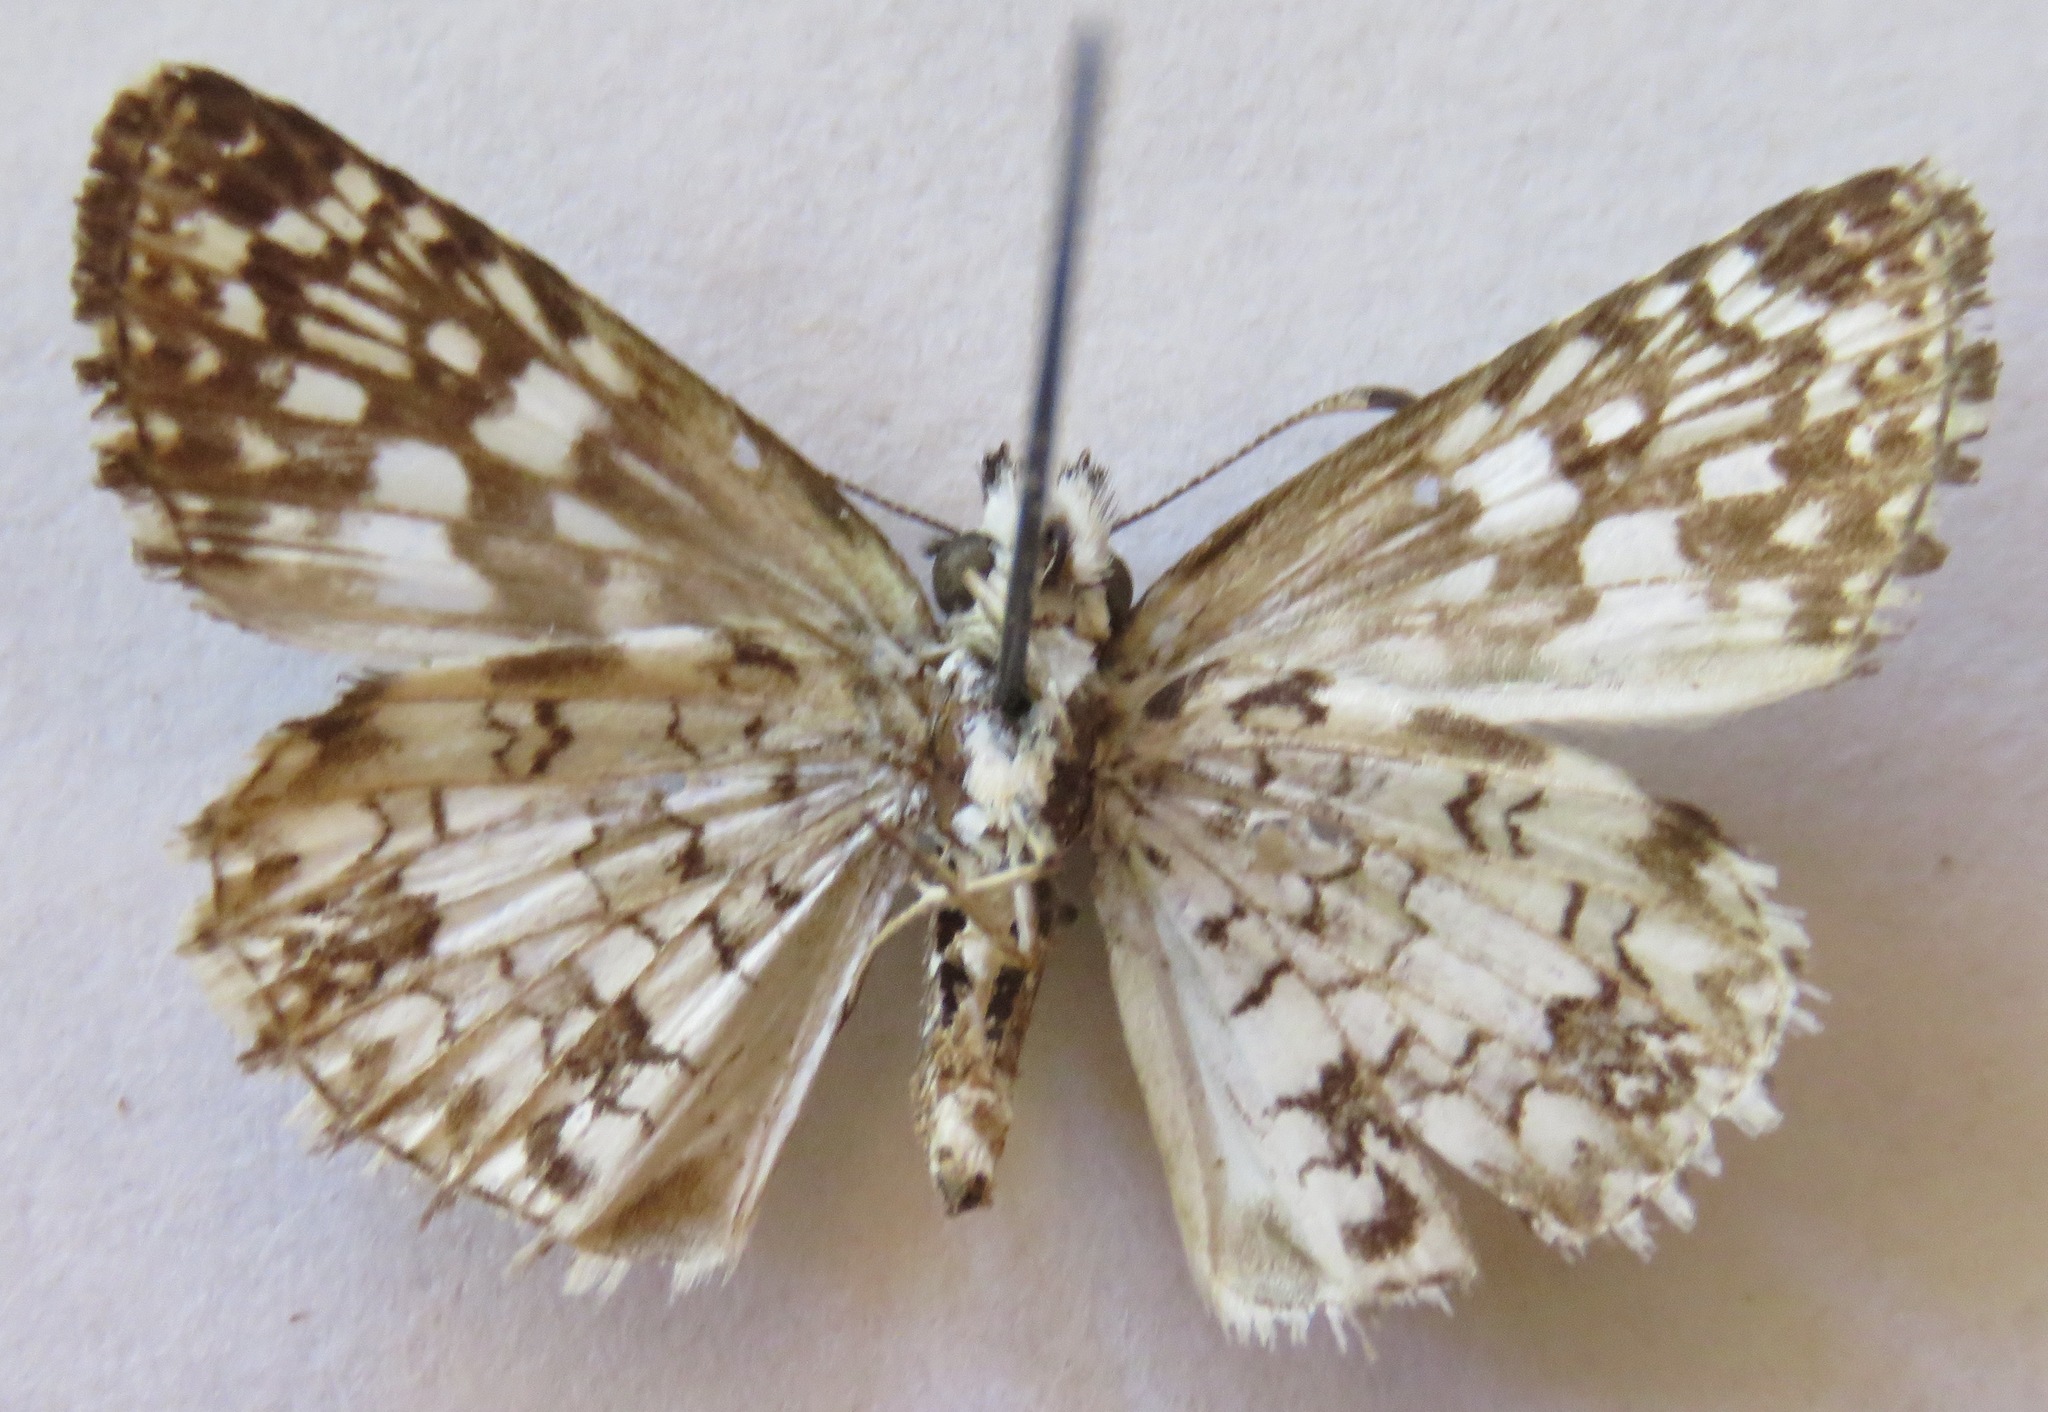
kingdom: Animalia
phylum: Arthropoda
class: Insecta
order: Lepidoptera
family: Hesperiidae
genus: Pyrgus
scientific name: Pyrgus oileus
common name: Tropical checkered-skipper
